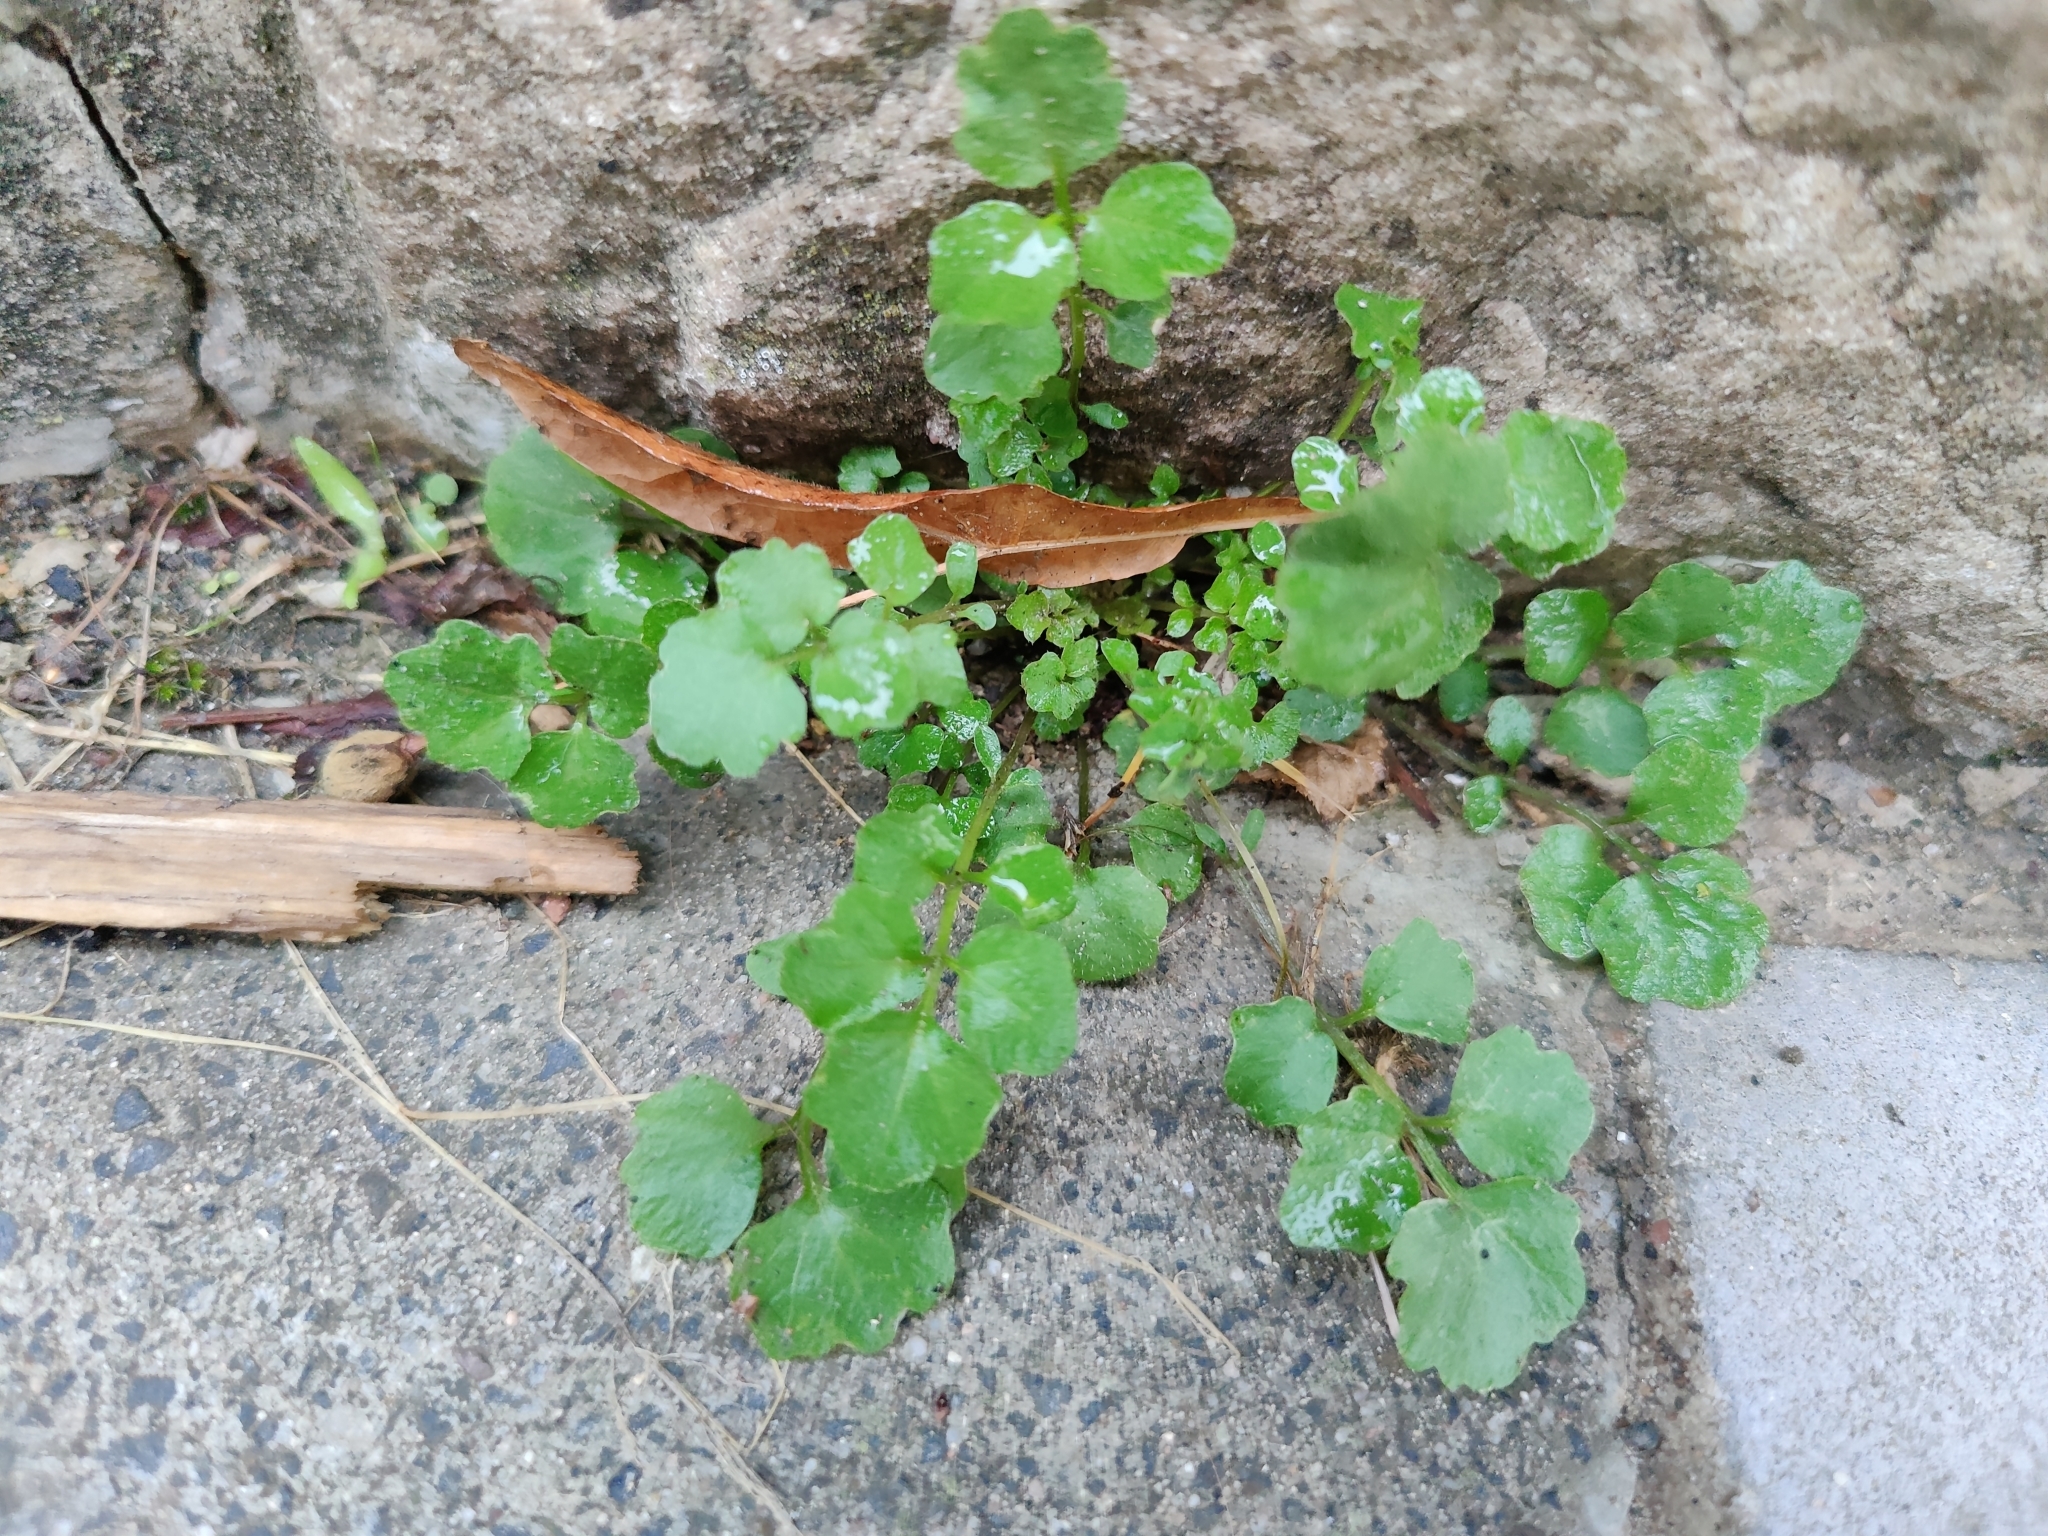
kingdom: Plantae
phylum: Tracheophyta
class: Magnoliopsida
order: Brassicales
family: Brassicaceae
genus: Cardamine
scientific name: Cardamine hirsuta
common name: Hairy bittercress
